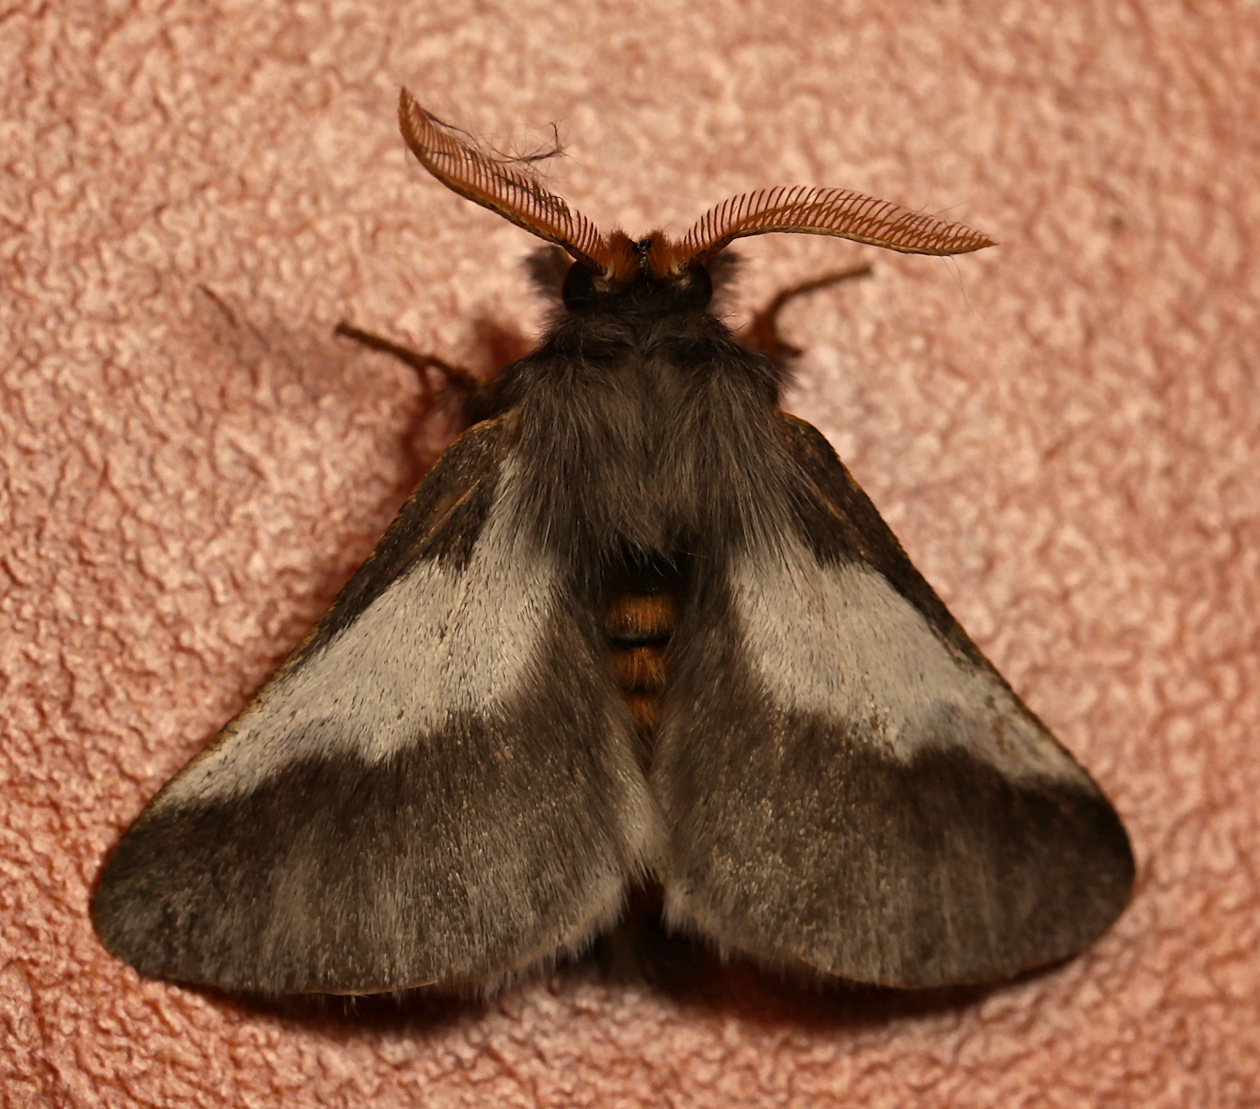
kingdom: Animalia
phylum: Arthropoda
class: Insecta
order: Lepidoptera
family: Notodontidae
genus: Thaumetopoea
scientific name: Thaumetopoea apologetica
